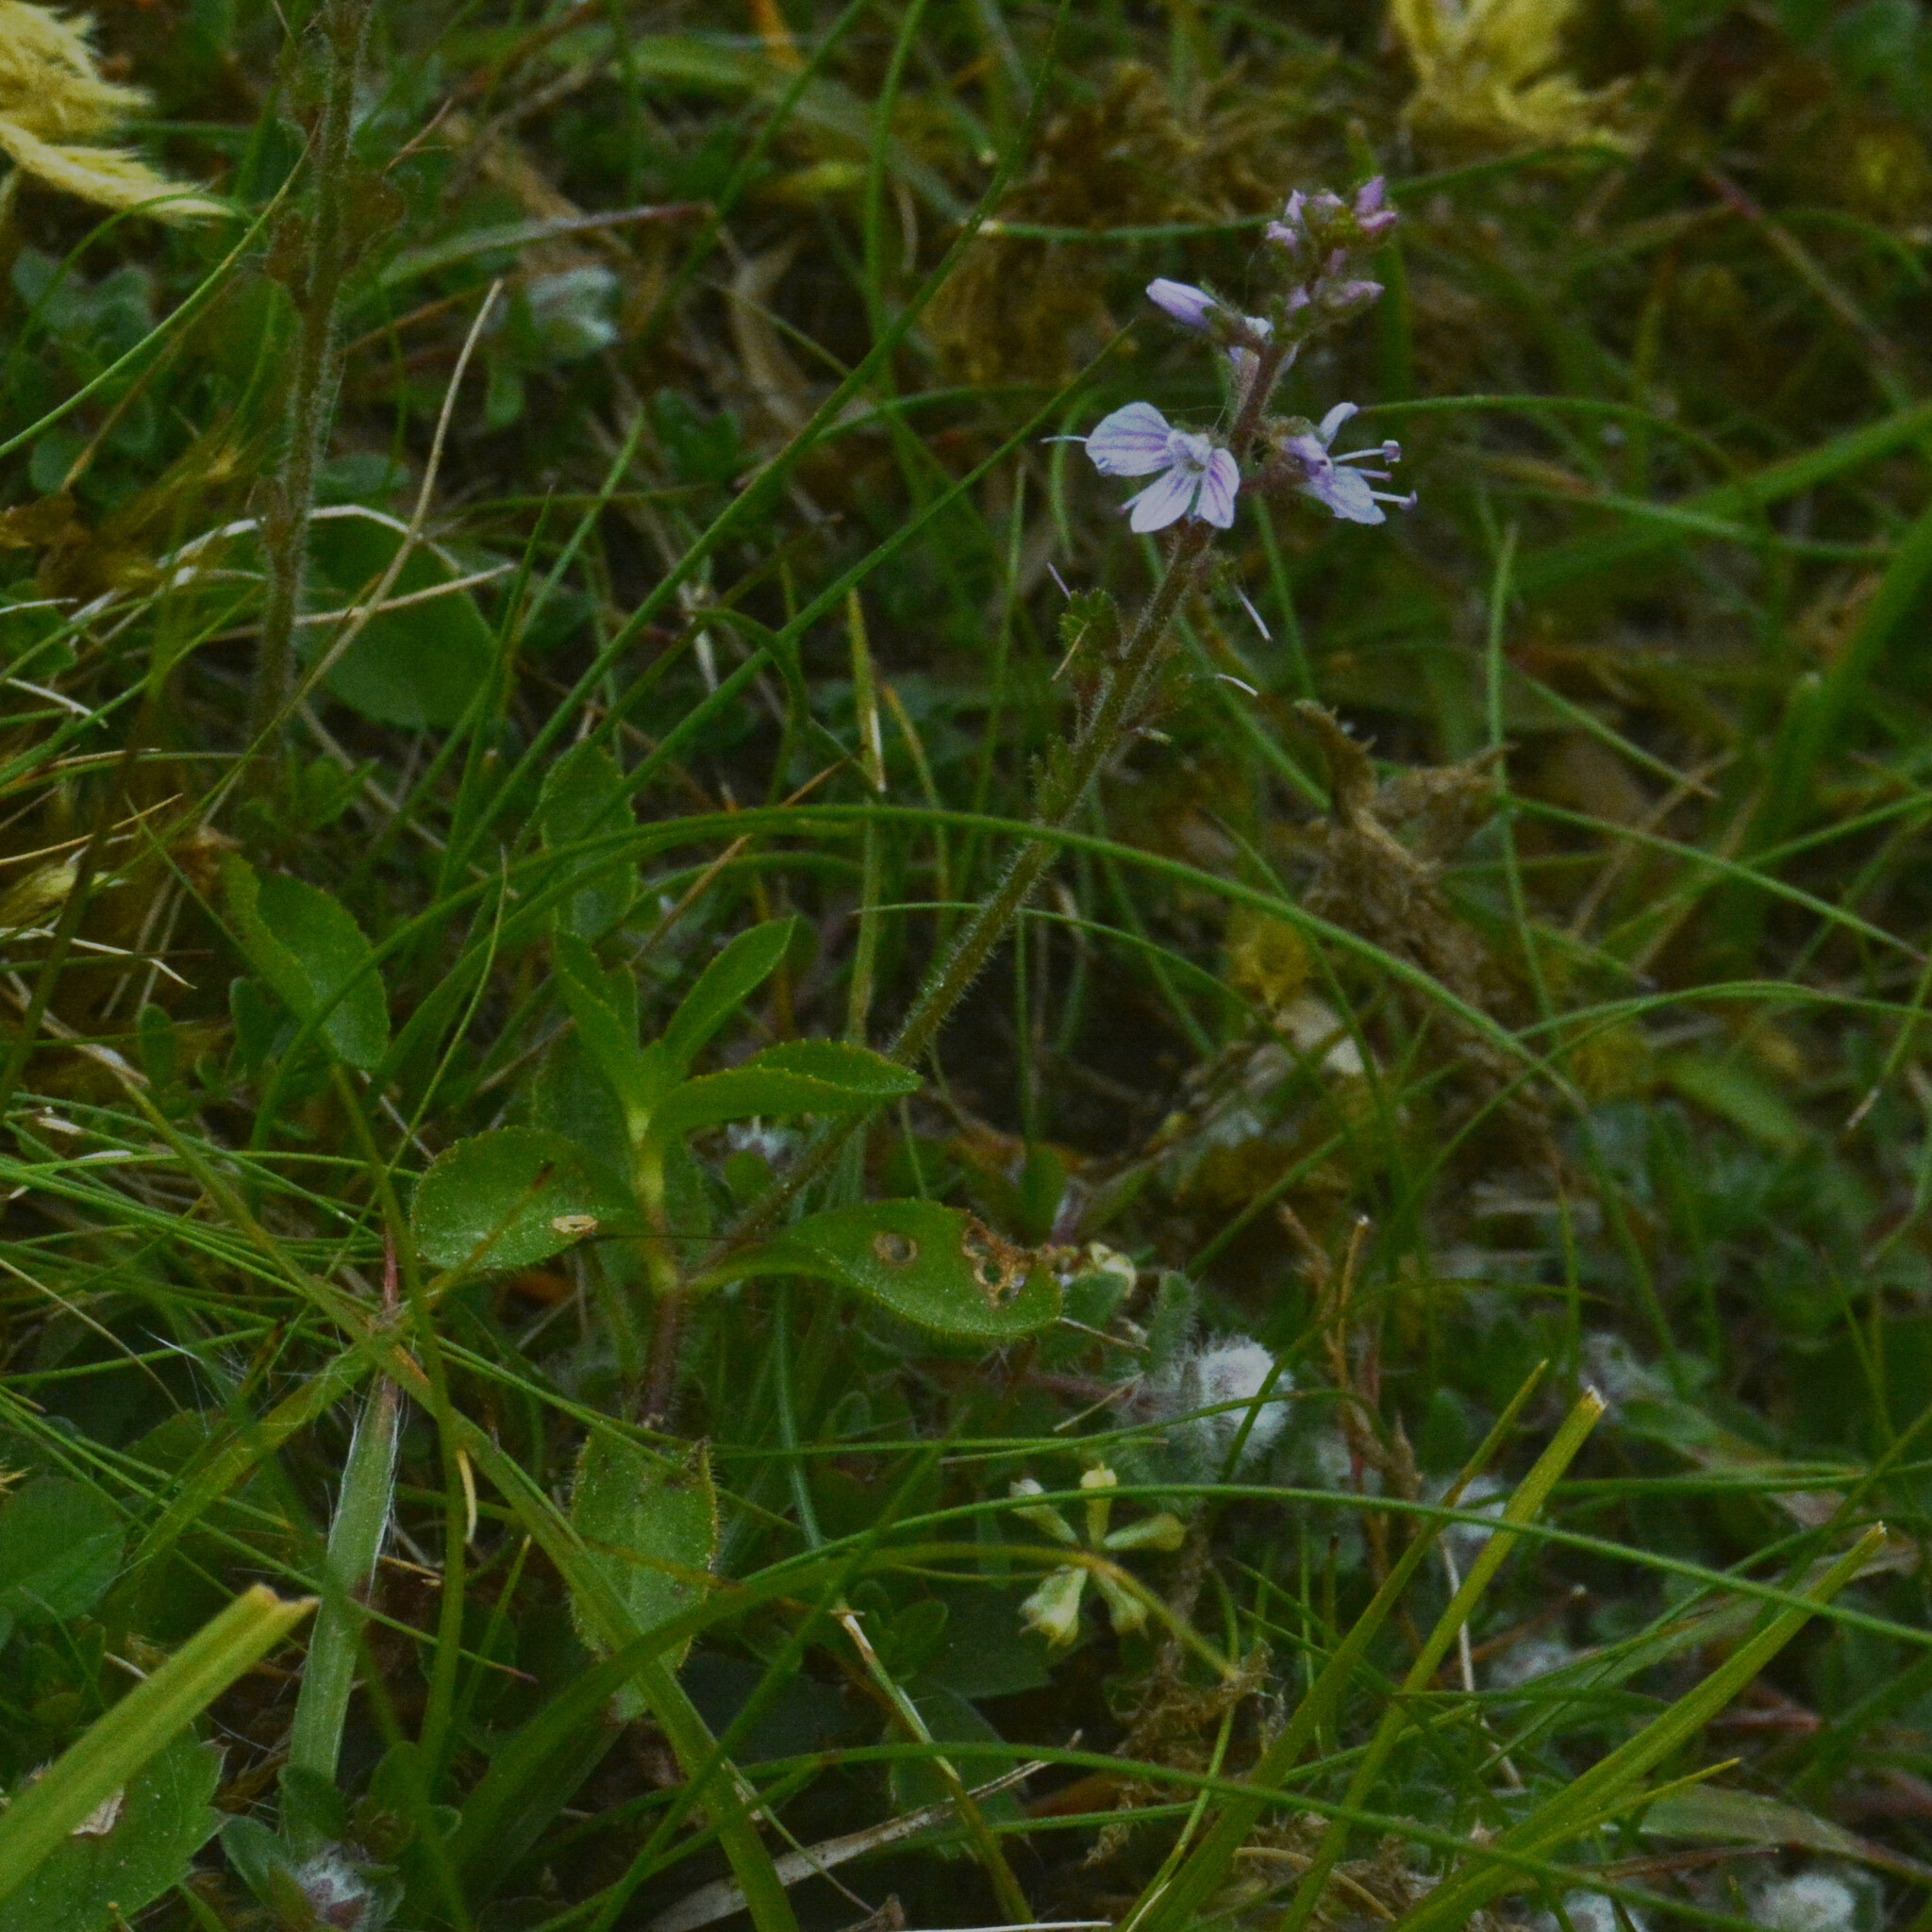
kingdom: Plantae
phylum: Tracheophyta
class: Magnoliopsida
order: Lamiales
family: Plantaginaceae
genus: Veronica
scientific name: Veronica officinalis
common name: Common speedwell
